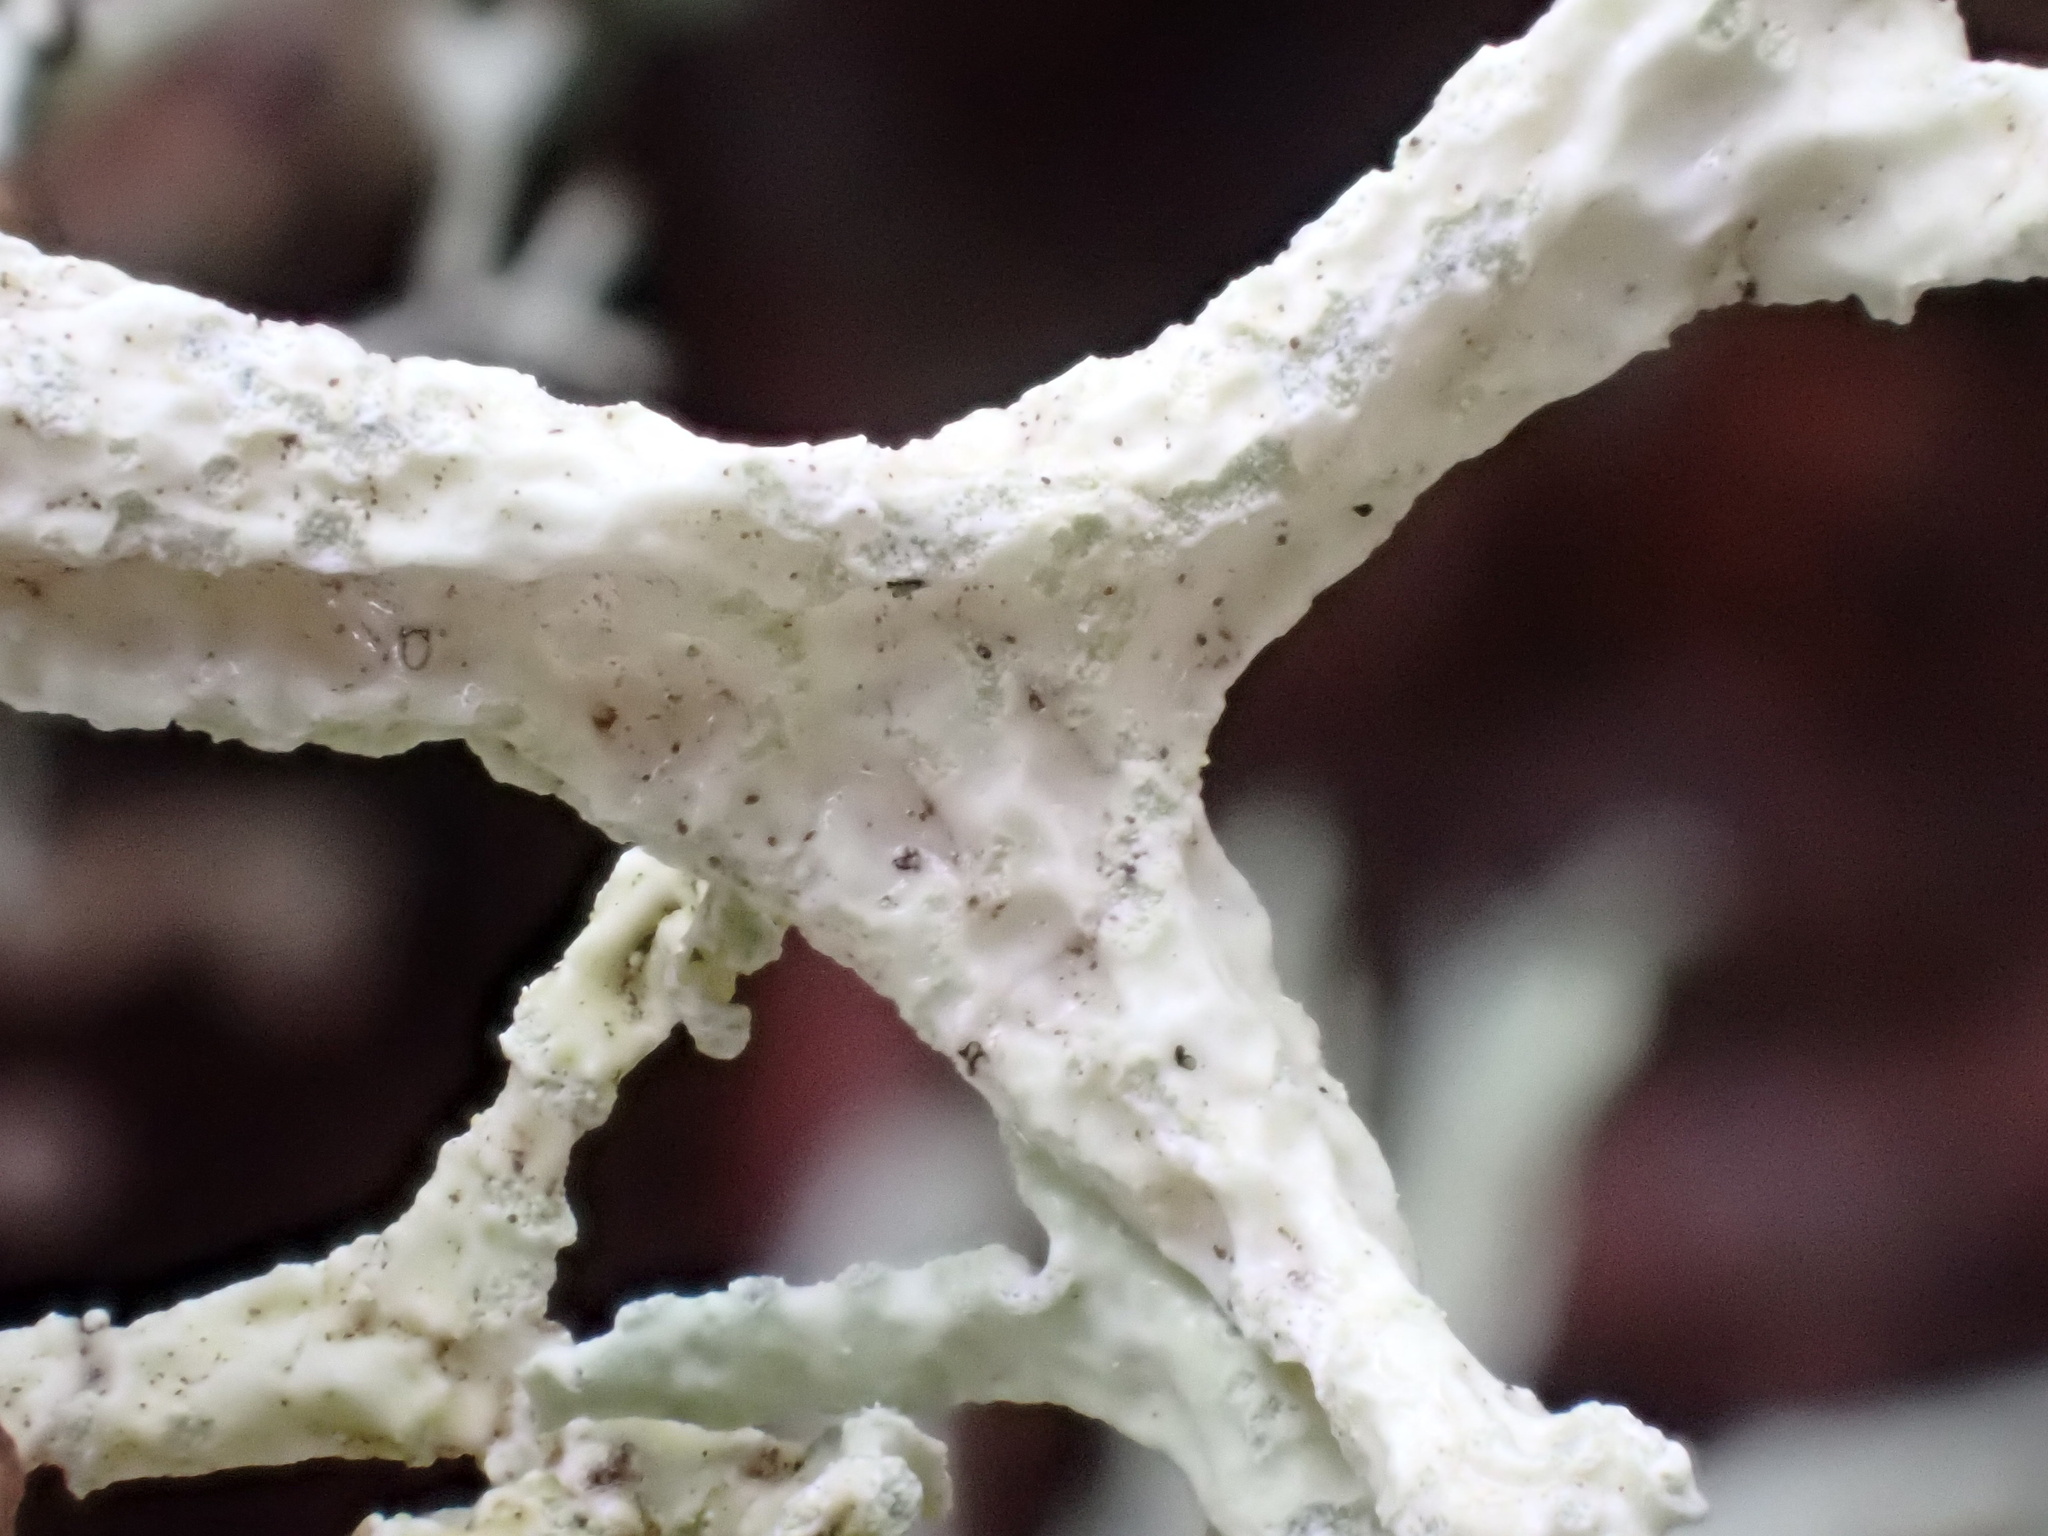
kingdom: Fungi
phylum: Ascomycota
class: Lecanoromycetes
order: Lecanorales
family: Parmeliaceae
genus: Evernia
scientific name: Evernia prunastri
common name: Oak moss
